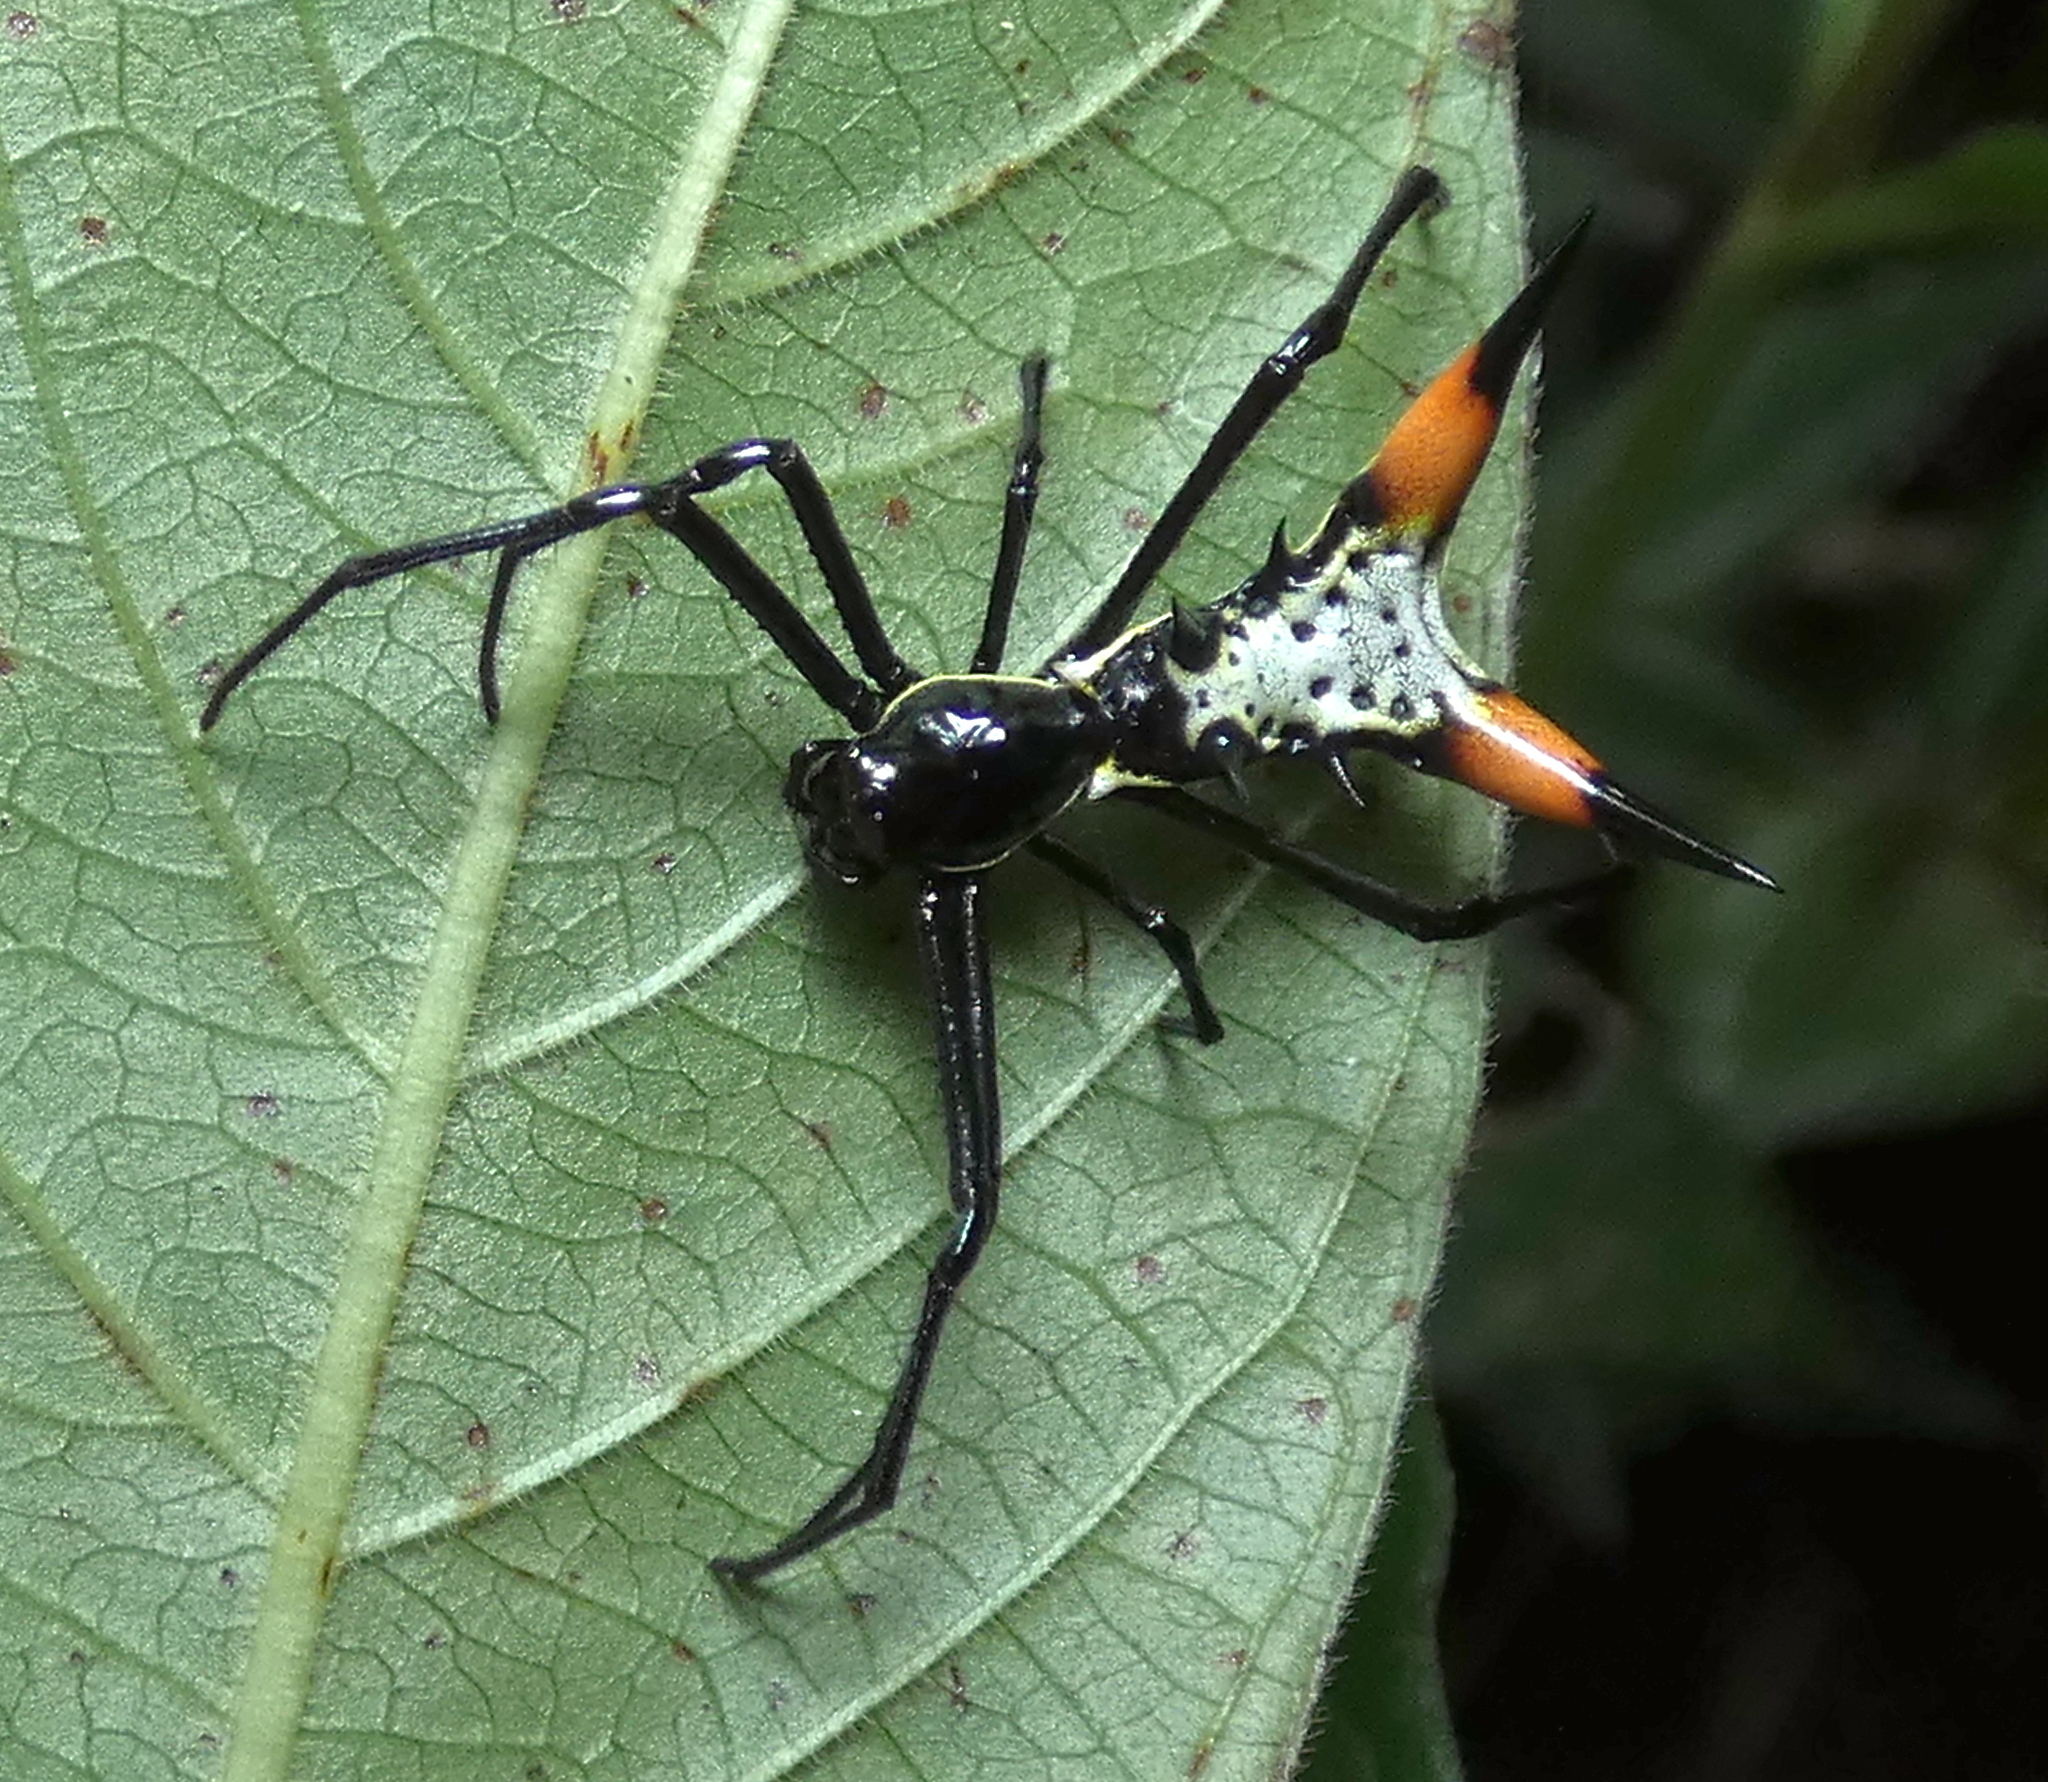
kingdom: Animalia
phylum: Arthropoda
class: Arachnida
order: Araneae
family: Araneidae
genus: Micrathena
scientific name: Micrathena schreibersi
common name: Orb weavers
